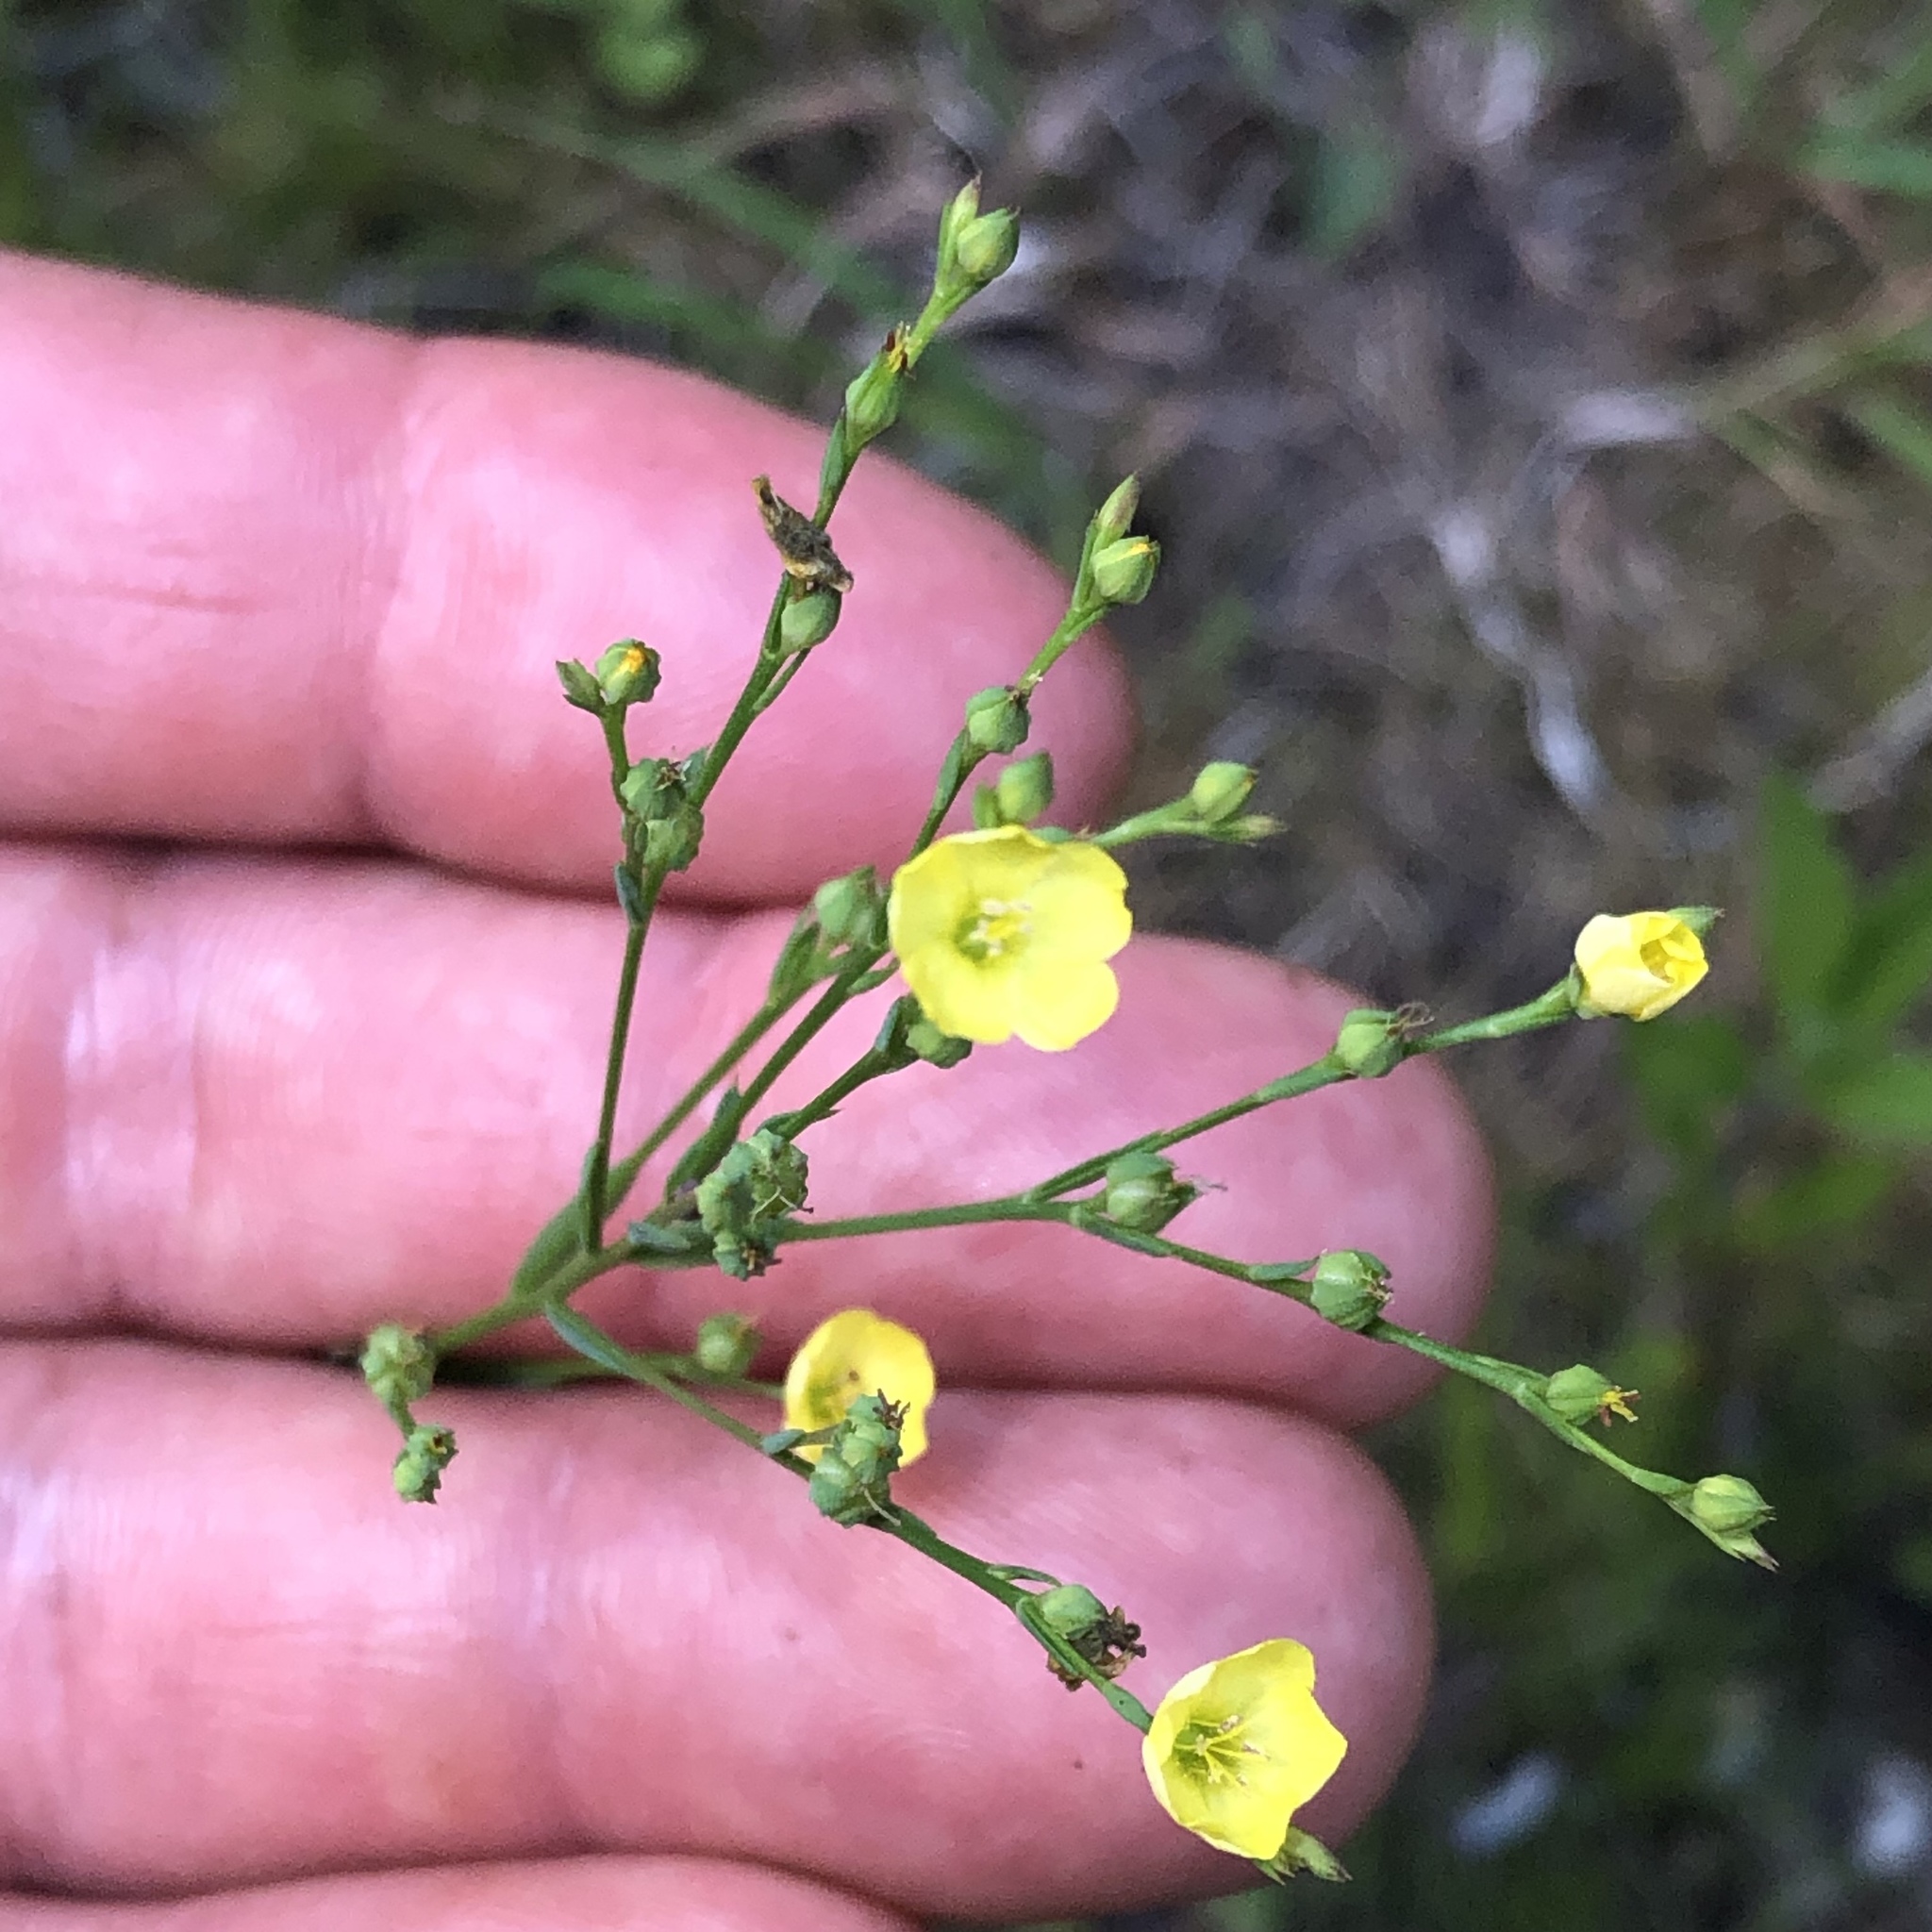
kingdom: Plantae
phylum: Tracheophyta
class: Magnoliopsida
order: Malpighiales
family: Linaceae
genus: Linum
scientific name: Linum sulcatum
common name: Grooved flax
